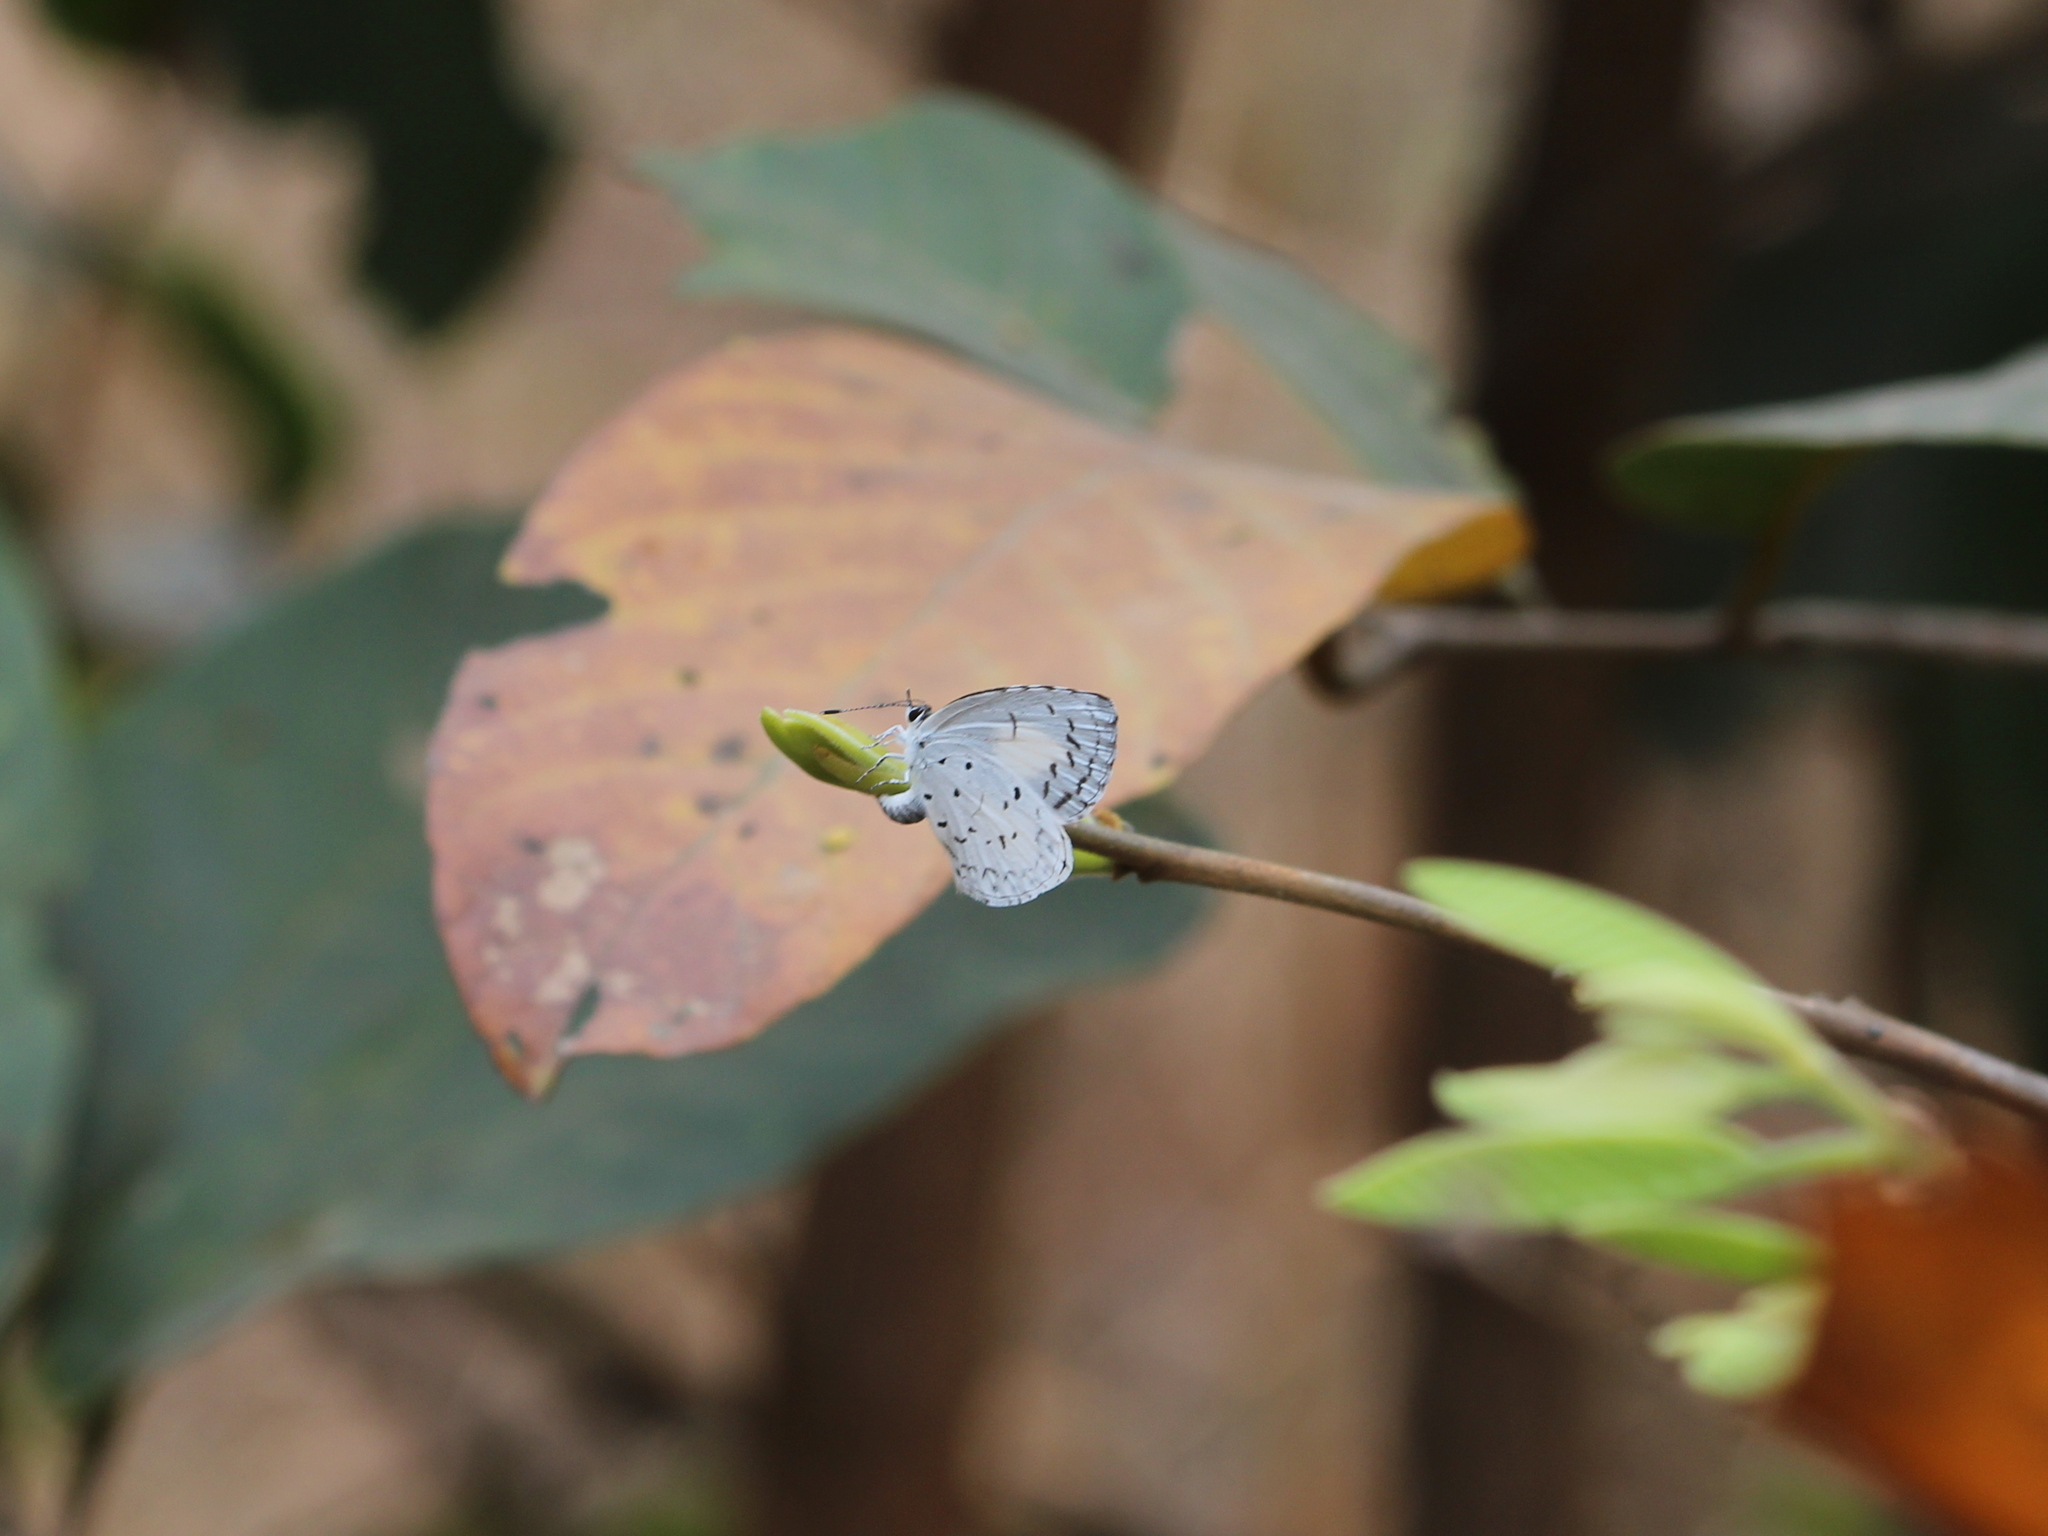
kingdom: Animalia
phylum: Arthropoda
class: Insecta
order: Lepidoptera
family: Lycaenidae
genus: Acytolepis
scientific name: Acytolepis puspa
